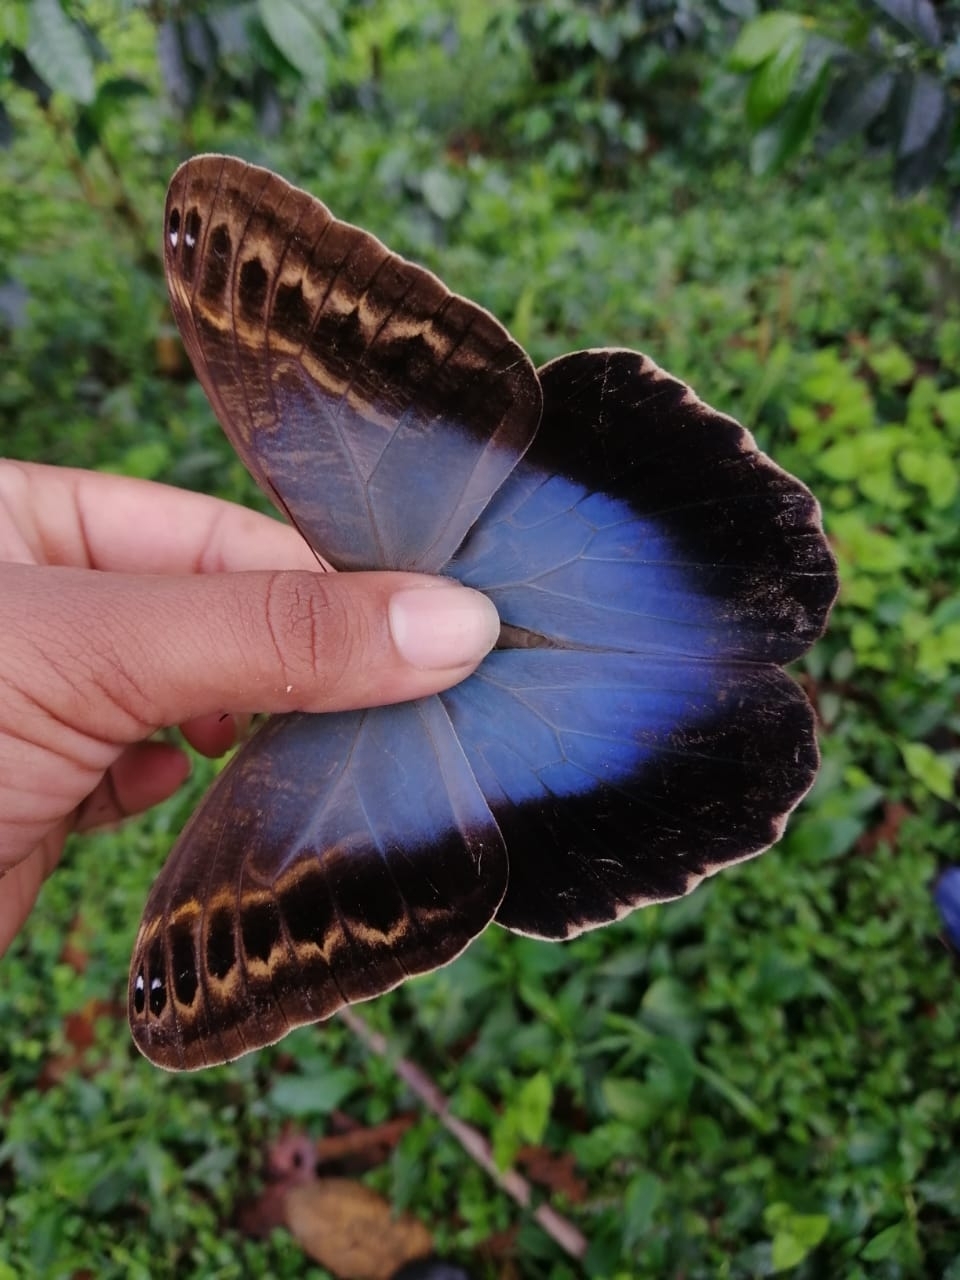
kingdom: Animalia
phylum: Arthropoda
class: Insecta
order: Lepidoptera
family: Nymphalidae
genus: Caligo
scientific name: Caligo illioneus
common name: Dusky owl-butterfly
